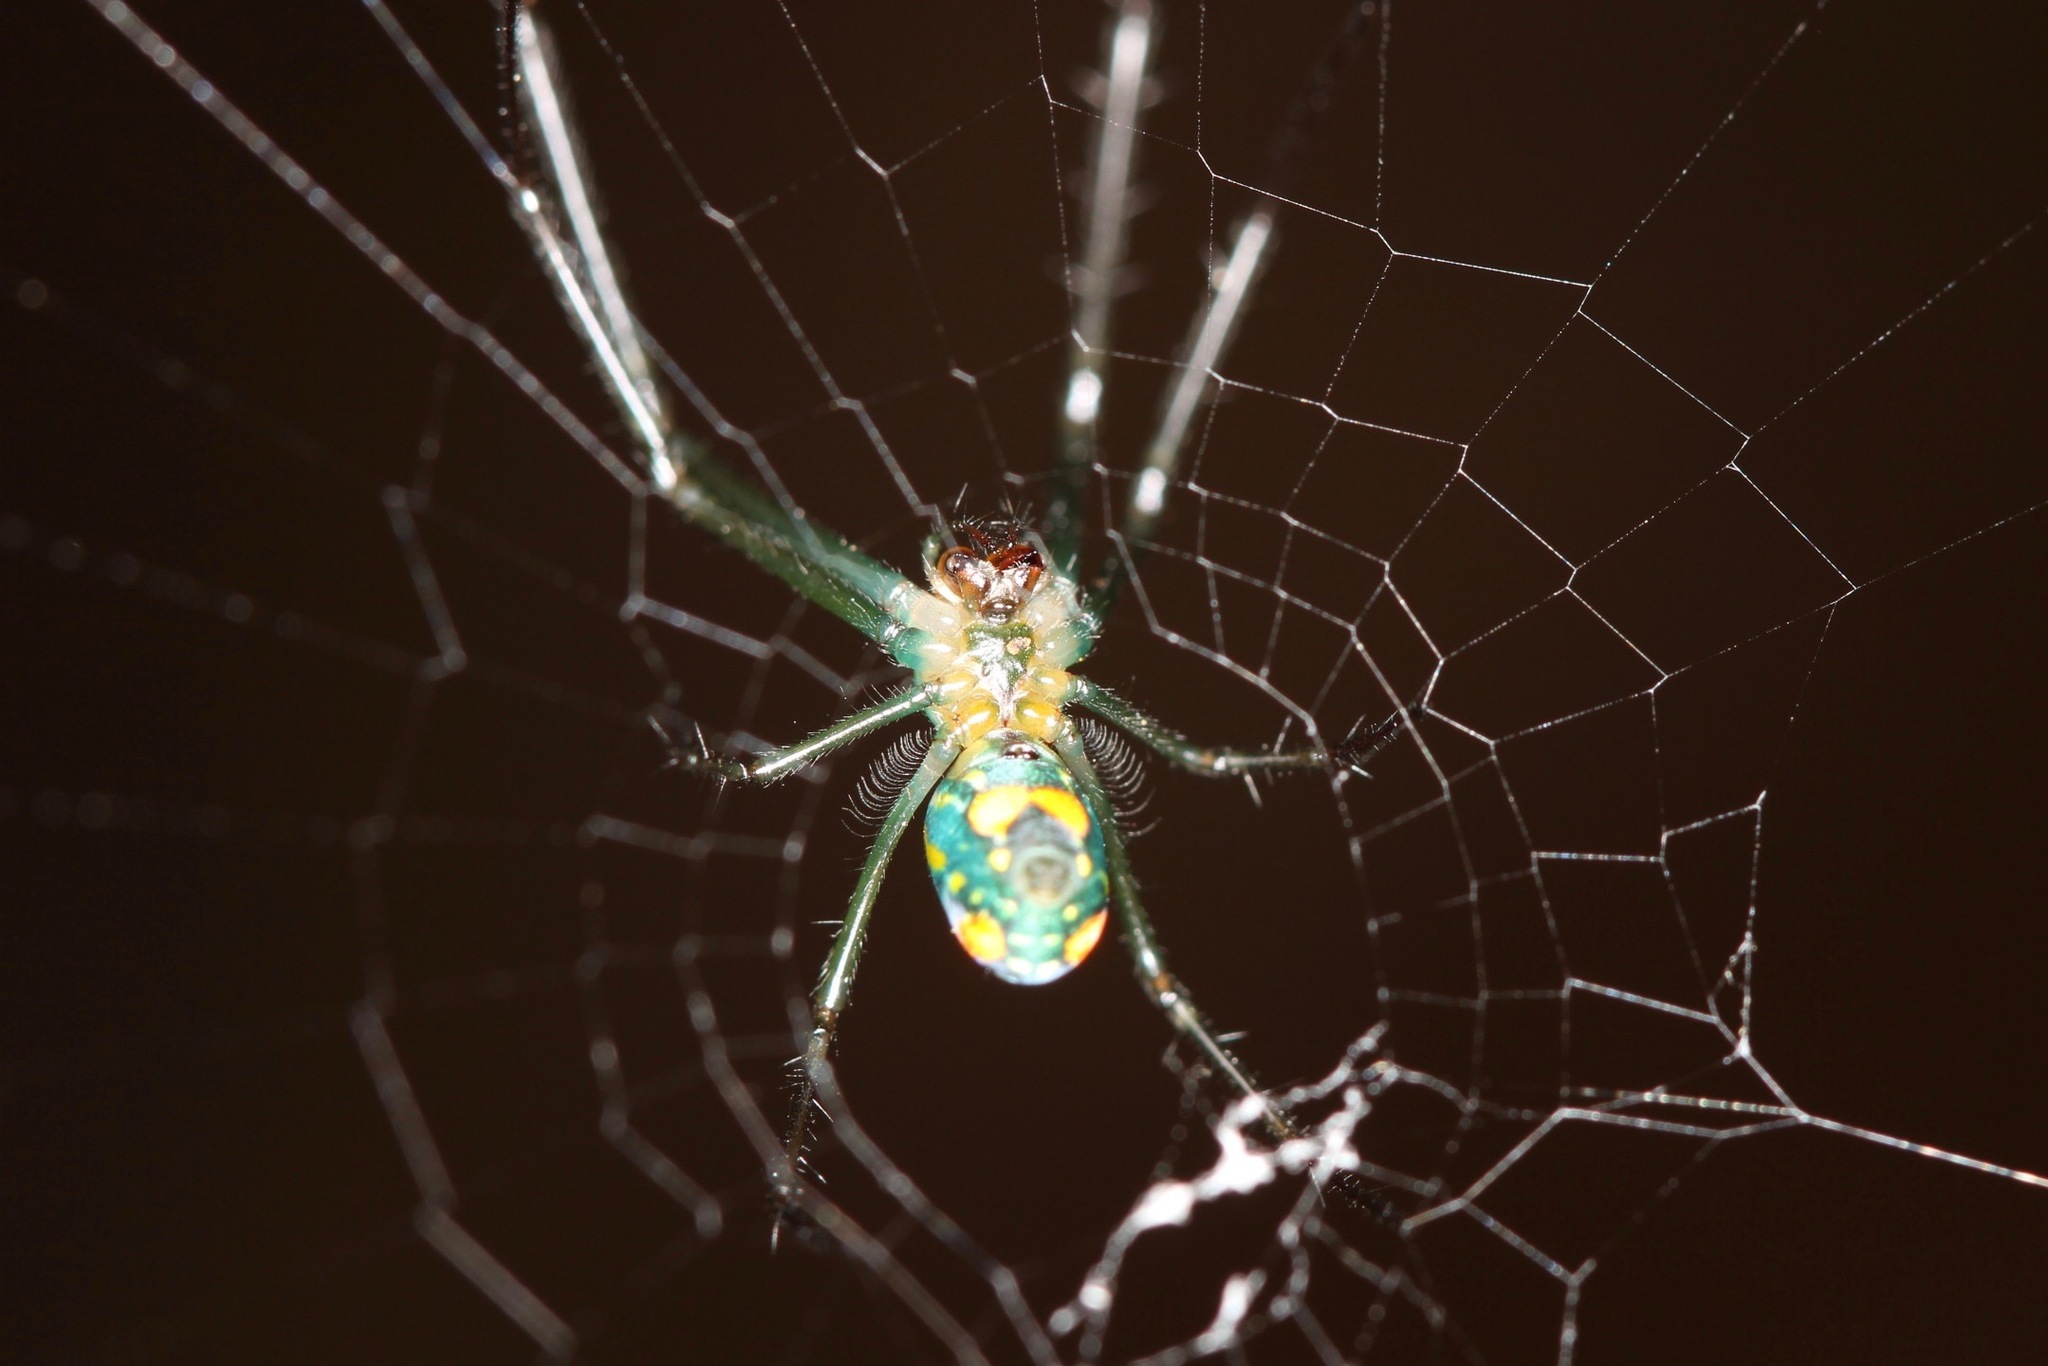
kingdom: Animalia
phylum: Arthropoda
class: Arachnida
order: Araneae
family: Tetragnathidae
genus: Leucauge
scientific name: Leucauge argyrobapta
